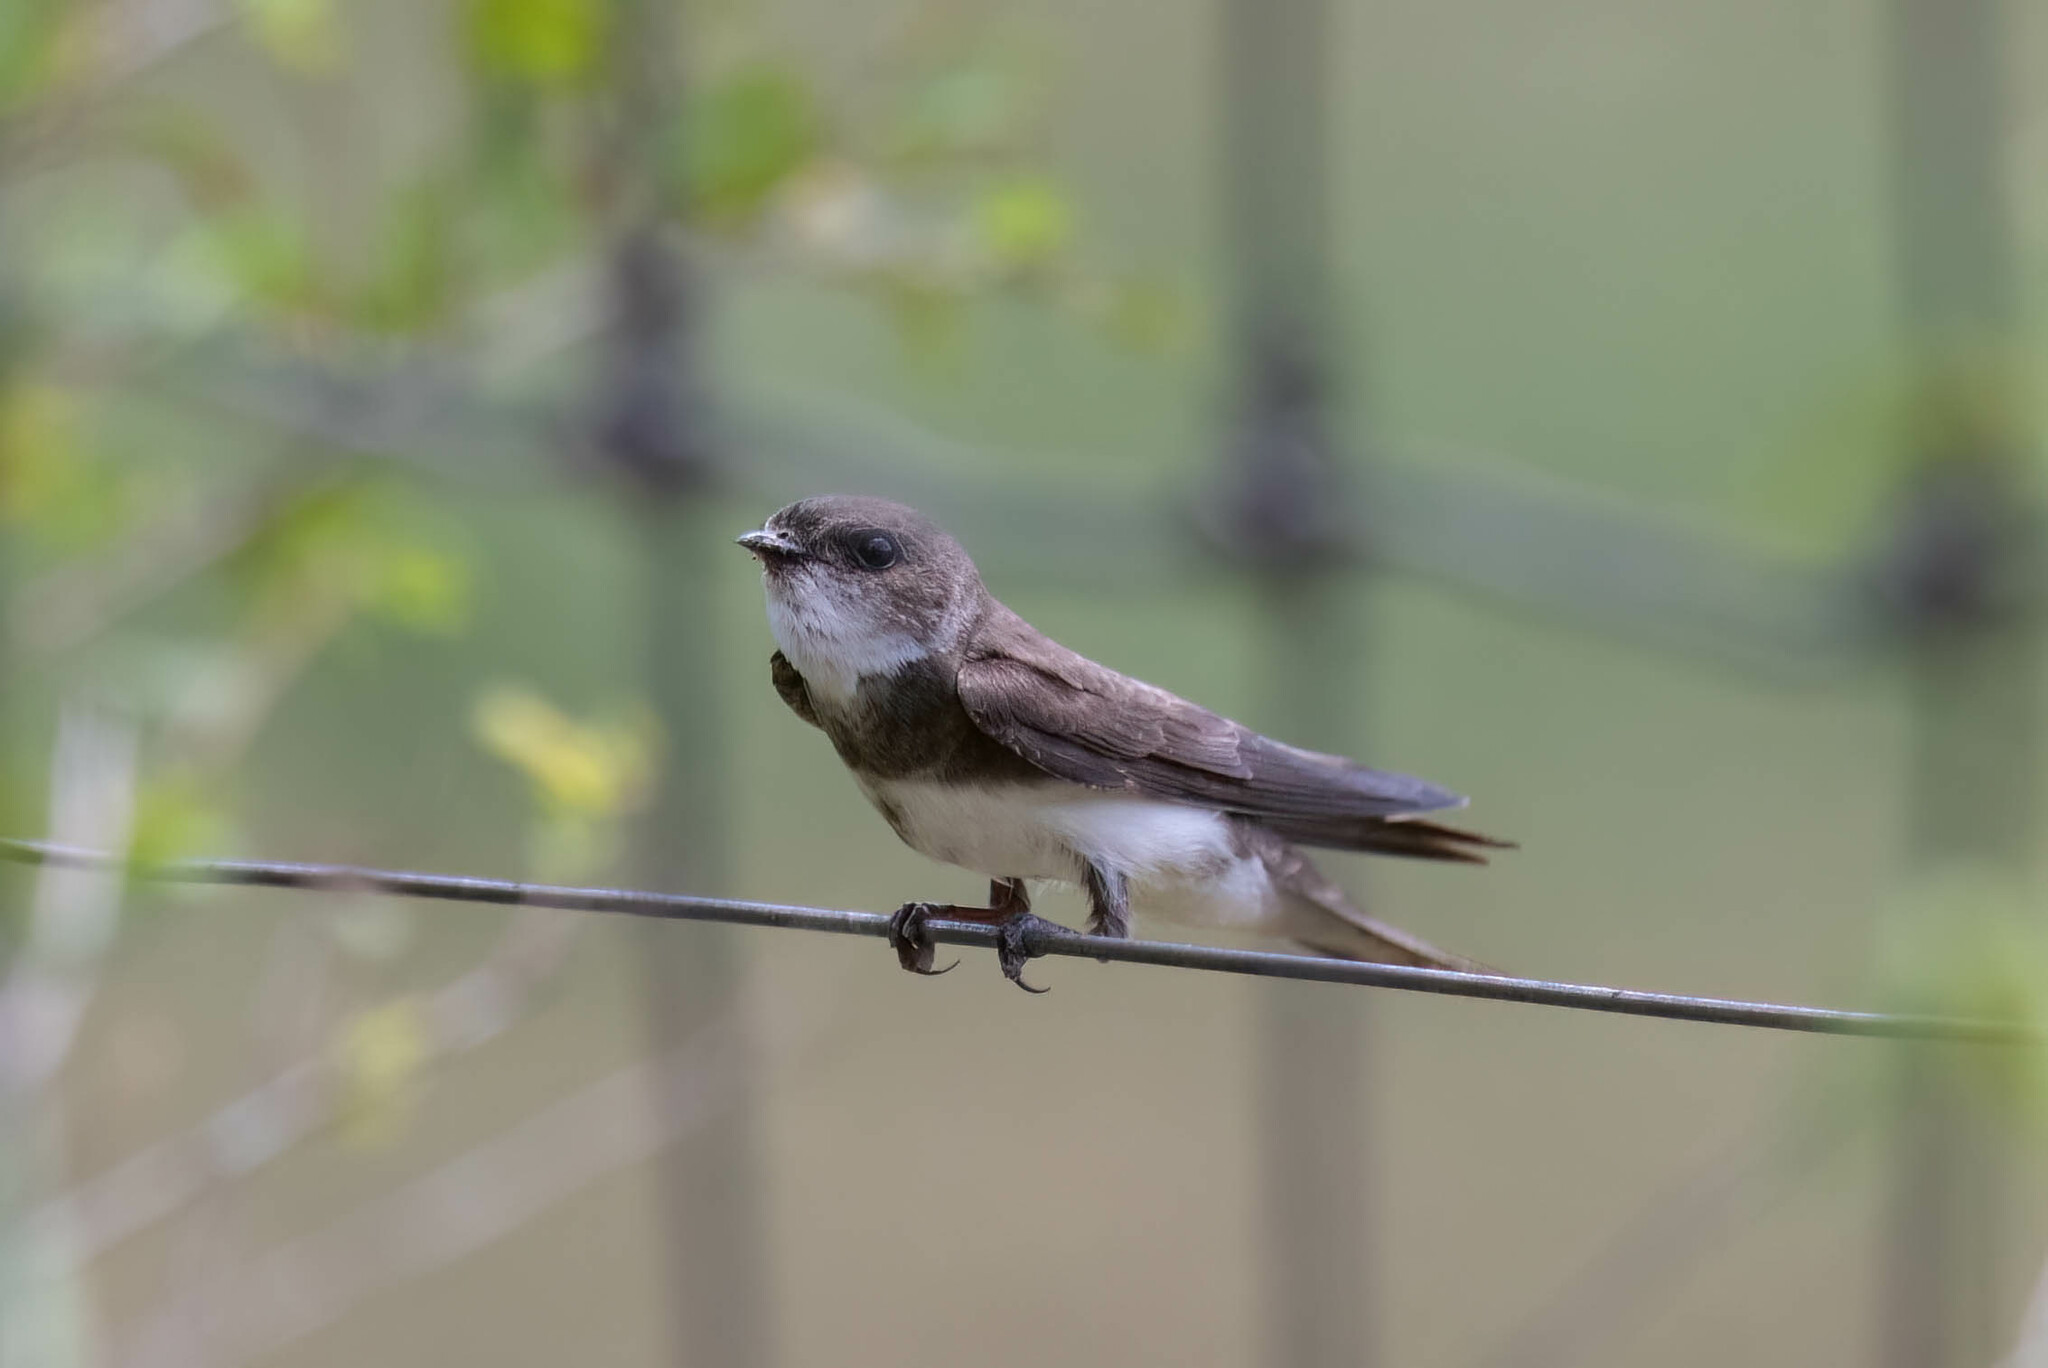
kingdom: Animalia
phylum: Chordata
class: Aves
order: Passeriformes
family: Hirundinidae
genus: Riparia
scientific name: Riparia riparia
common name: Sand martin
